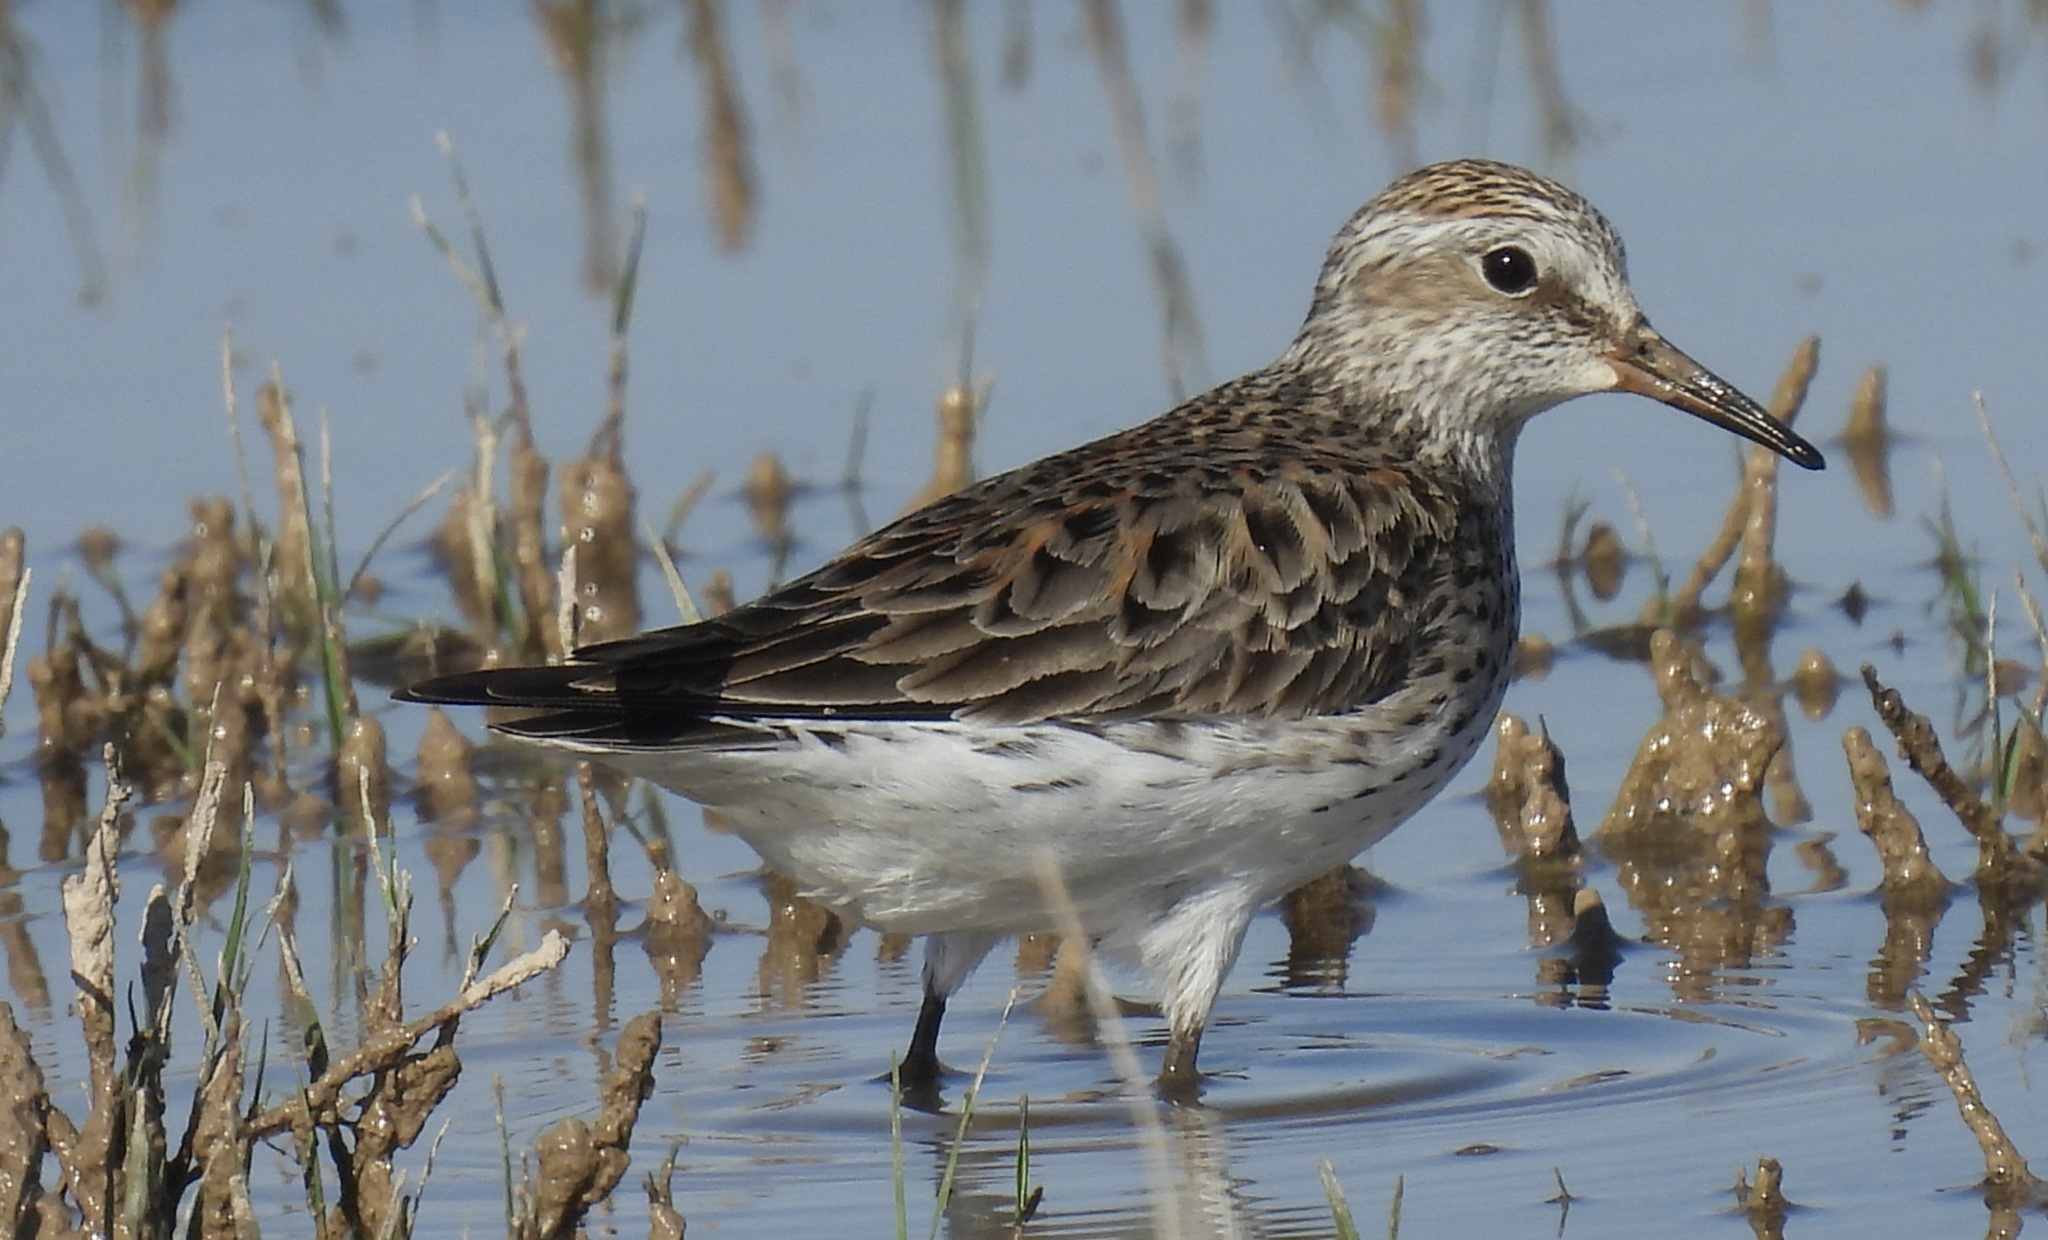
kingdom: Animalia
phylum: Chordata
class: Aves
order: Charadriiformes
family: Scolopacidae
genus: Calidris
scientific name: Calidris fuscicollis
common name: White-rumped sandpiper
